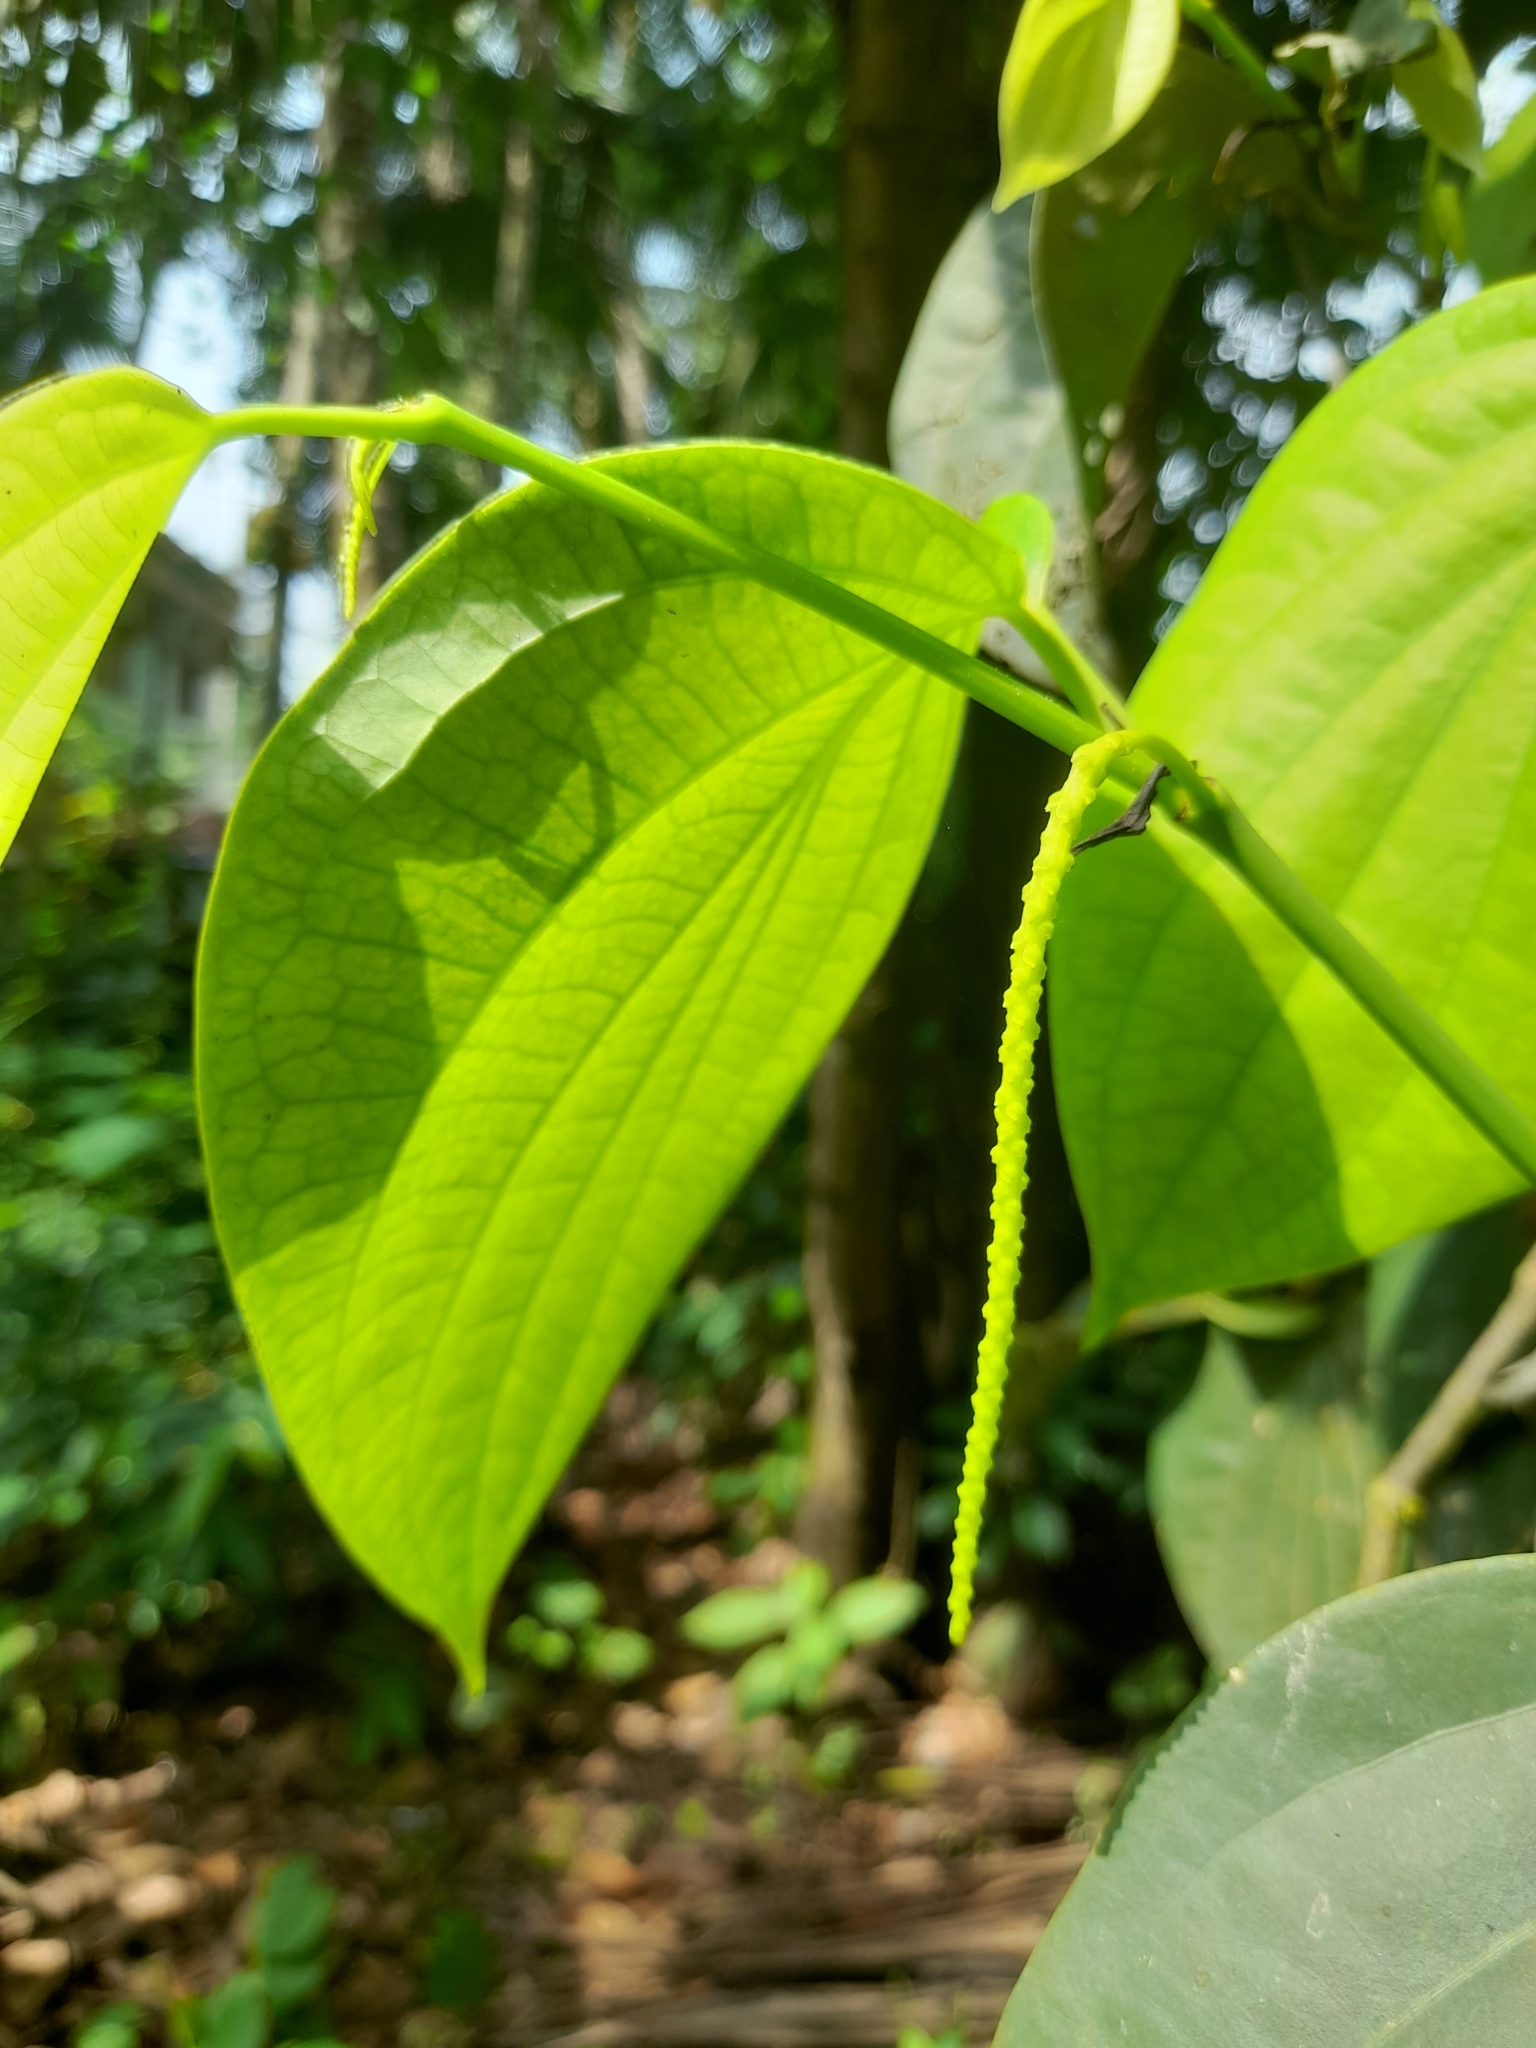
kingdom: Plantae
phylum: Tracheophyta
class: Magnoliopsida
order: Piperales
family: Piperaceae
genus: Piper
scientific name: Piper nigrum
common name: Black pepper
